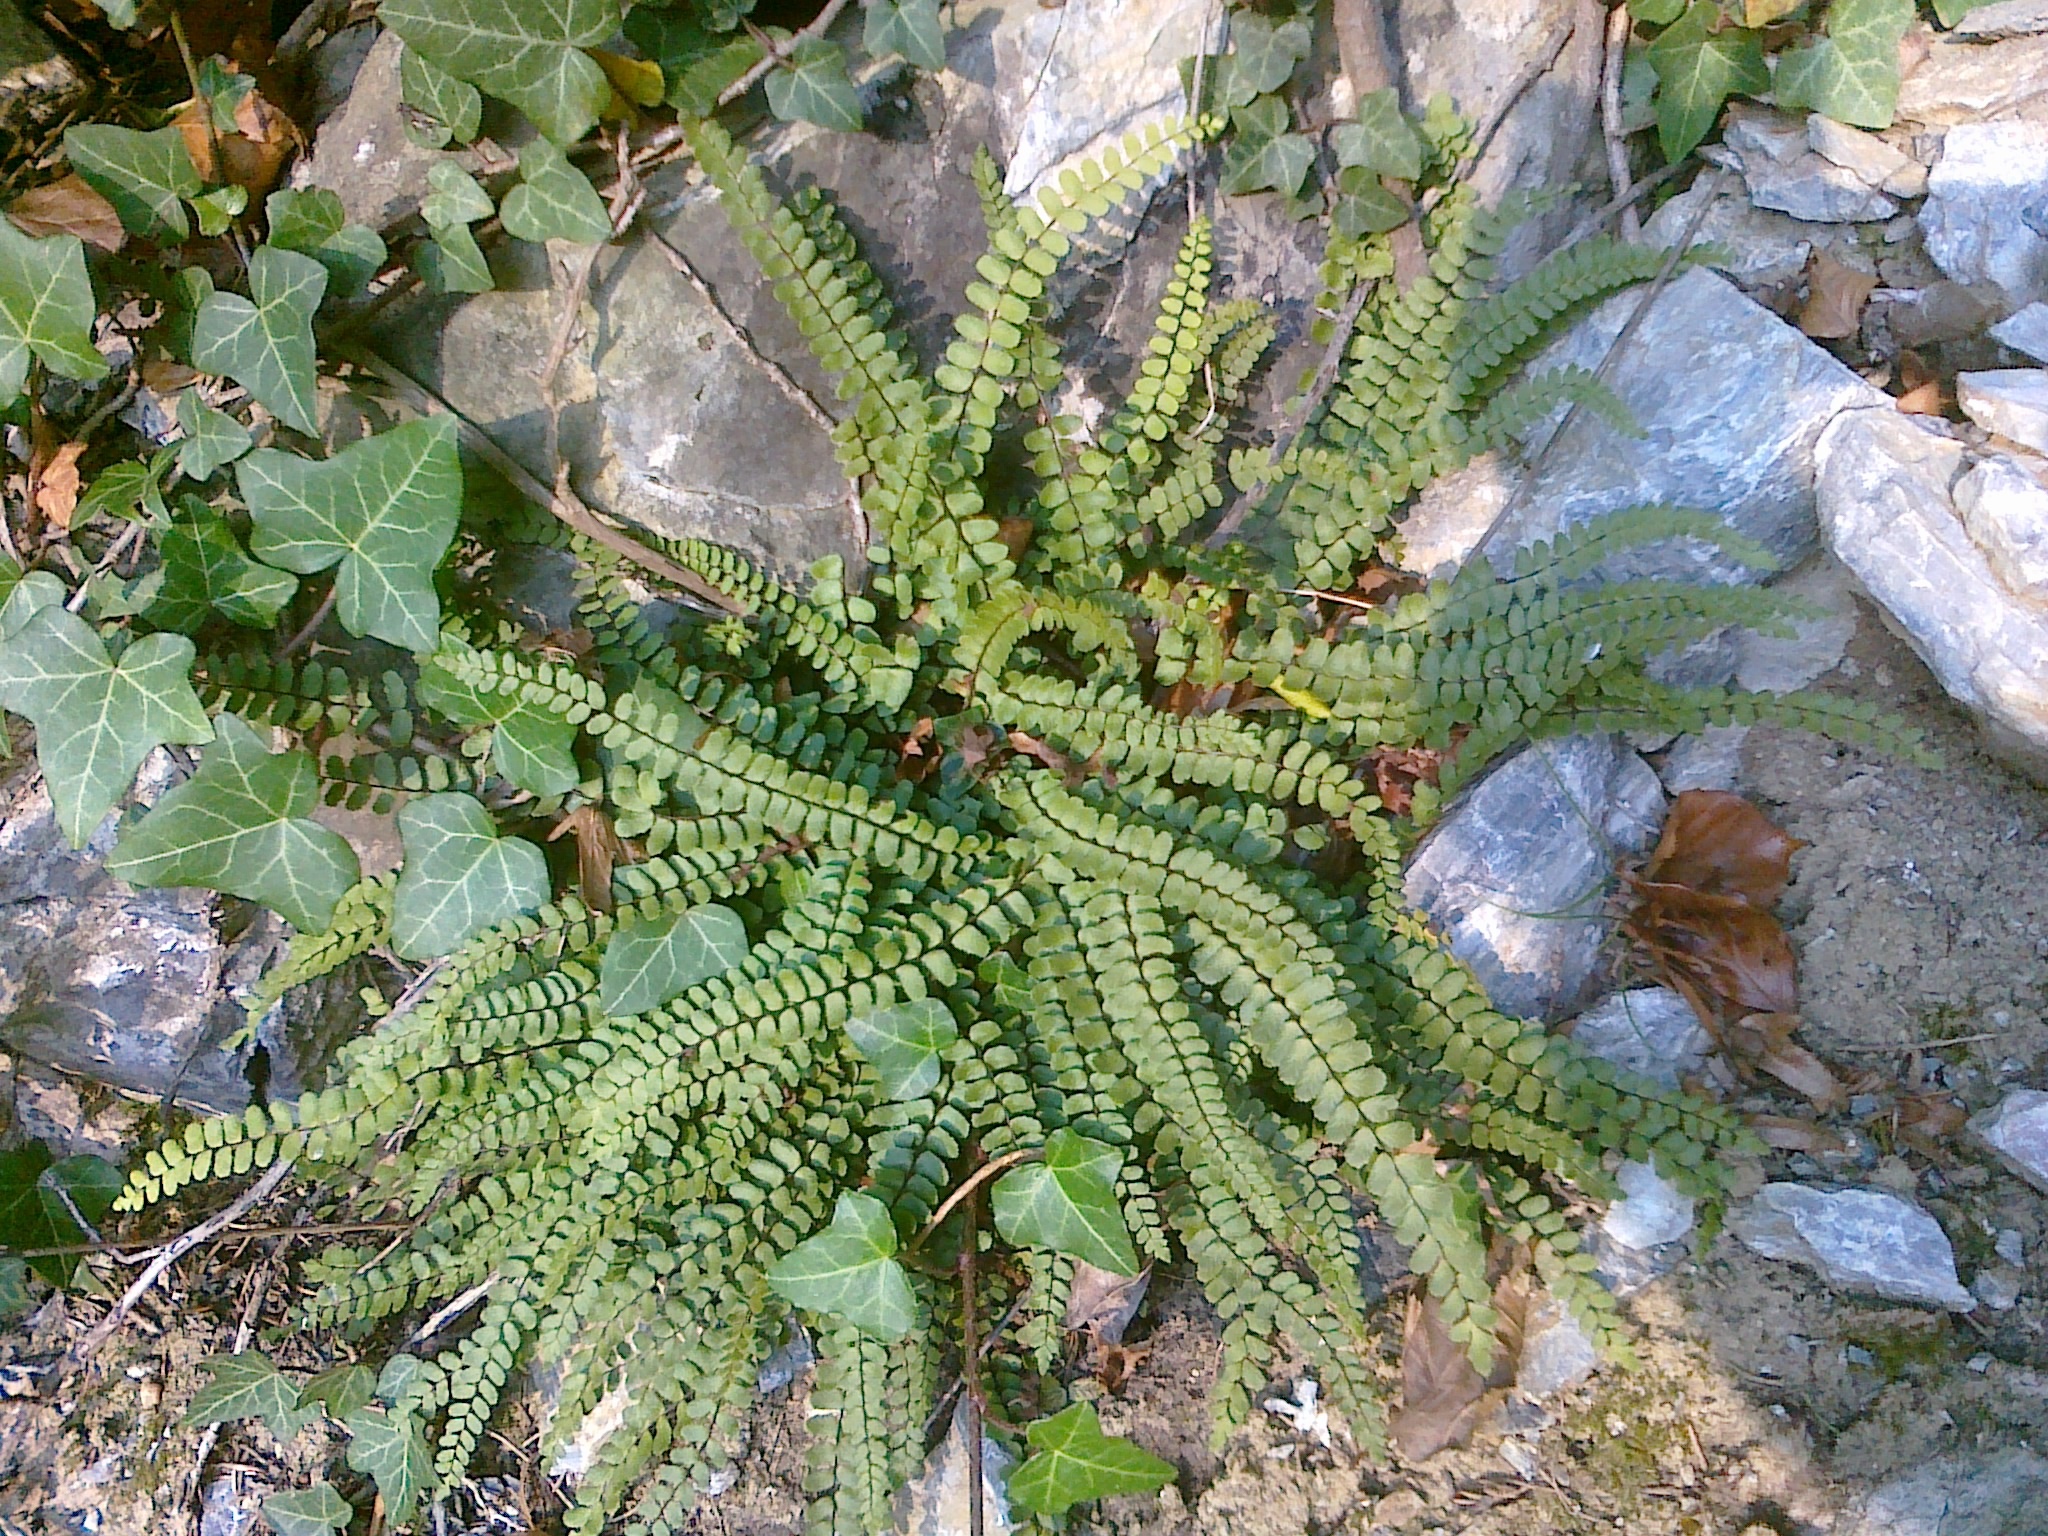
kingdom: Plantae
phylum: Tracheophyta
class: Polypodiopsida
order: Polypodiales
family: Aspleniaceae
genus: Asplenium
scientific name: Asplenium quadrivalens
